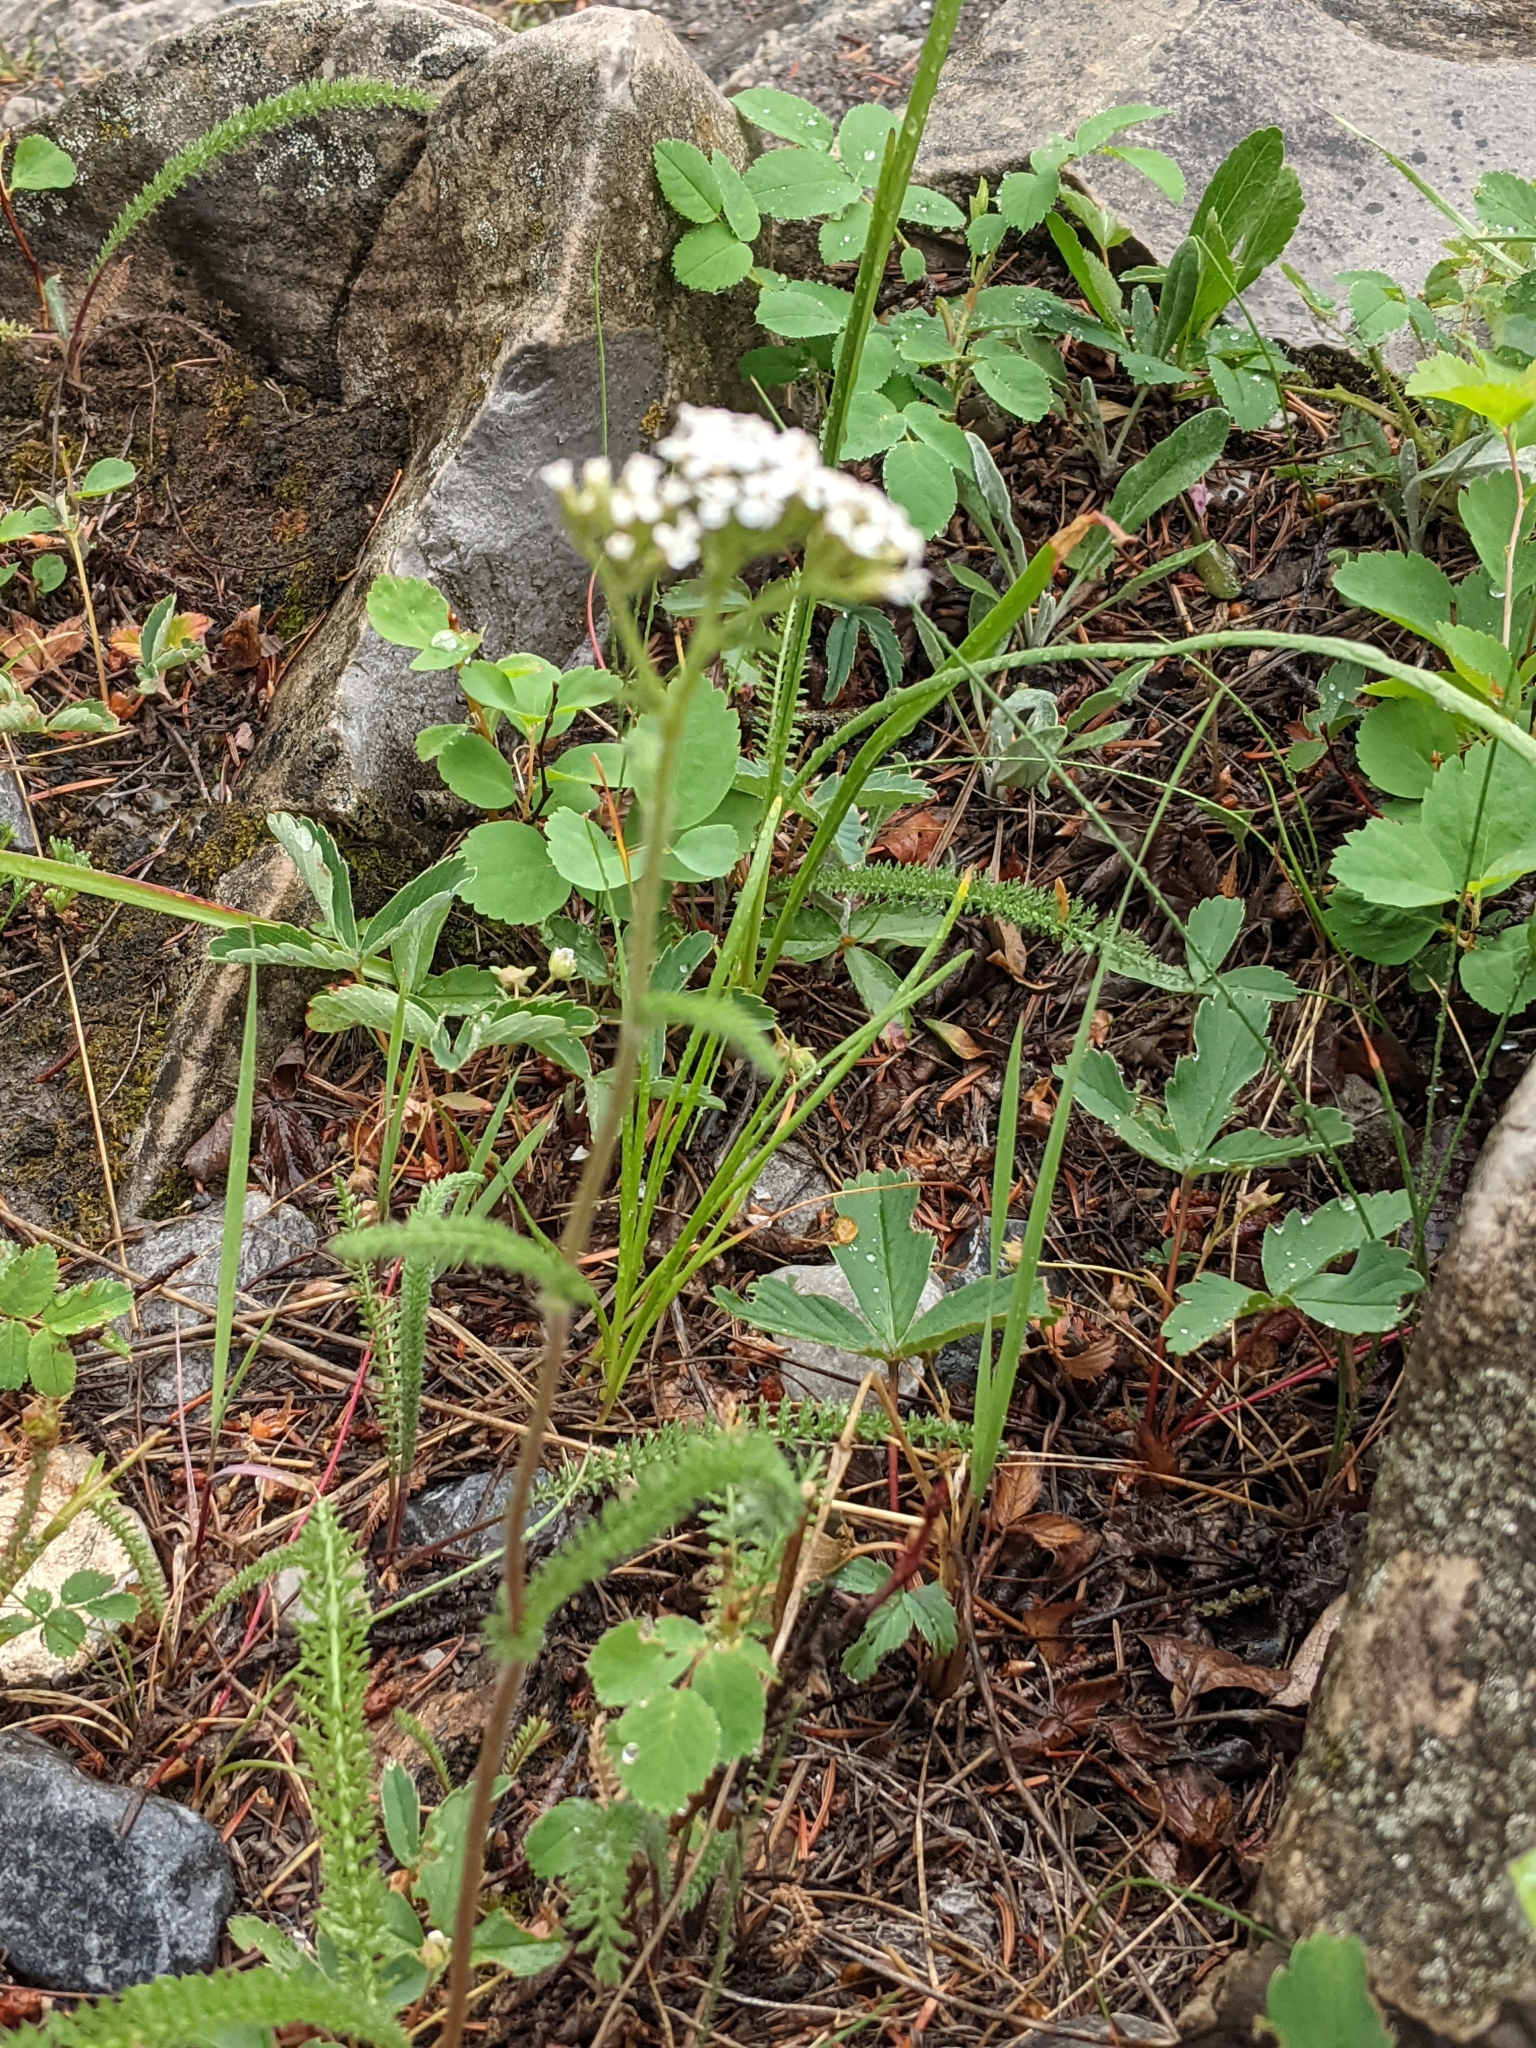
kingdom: Plantae
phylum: Tracheophyta
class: Magnoliopsida
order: Asterales
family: Asteraceae
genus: Achillea
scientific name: Achillea millefolium
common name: Yarrow
